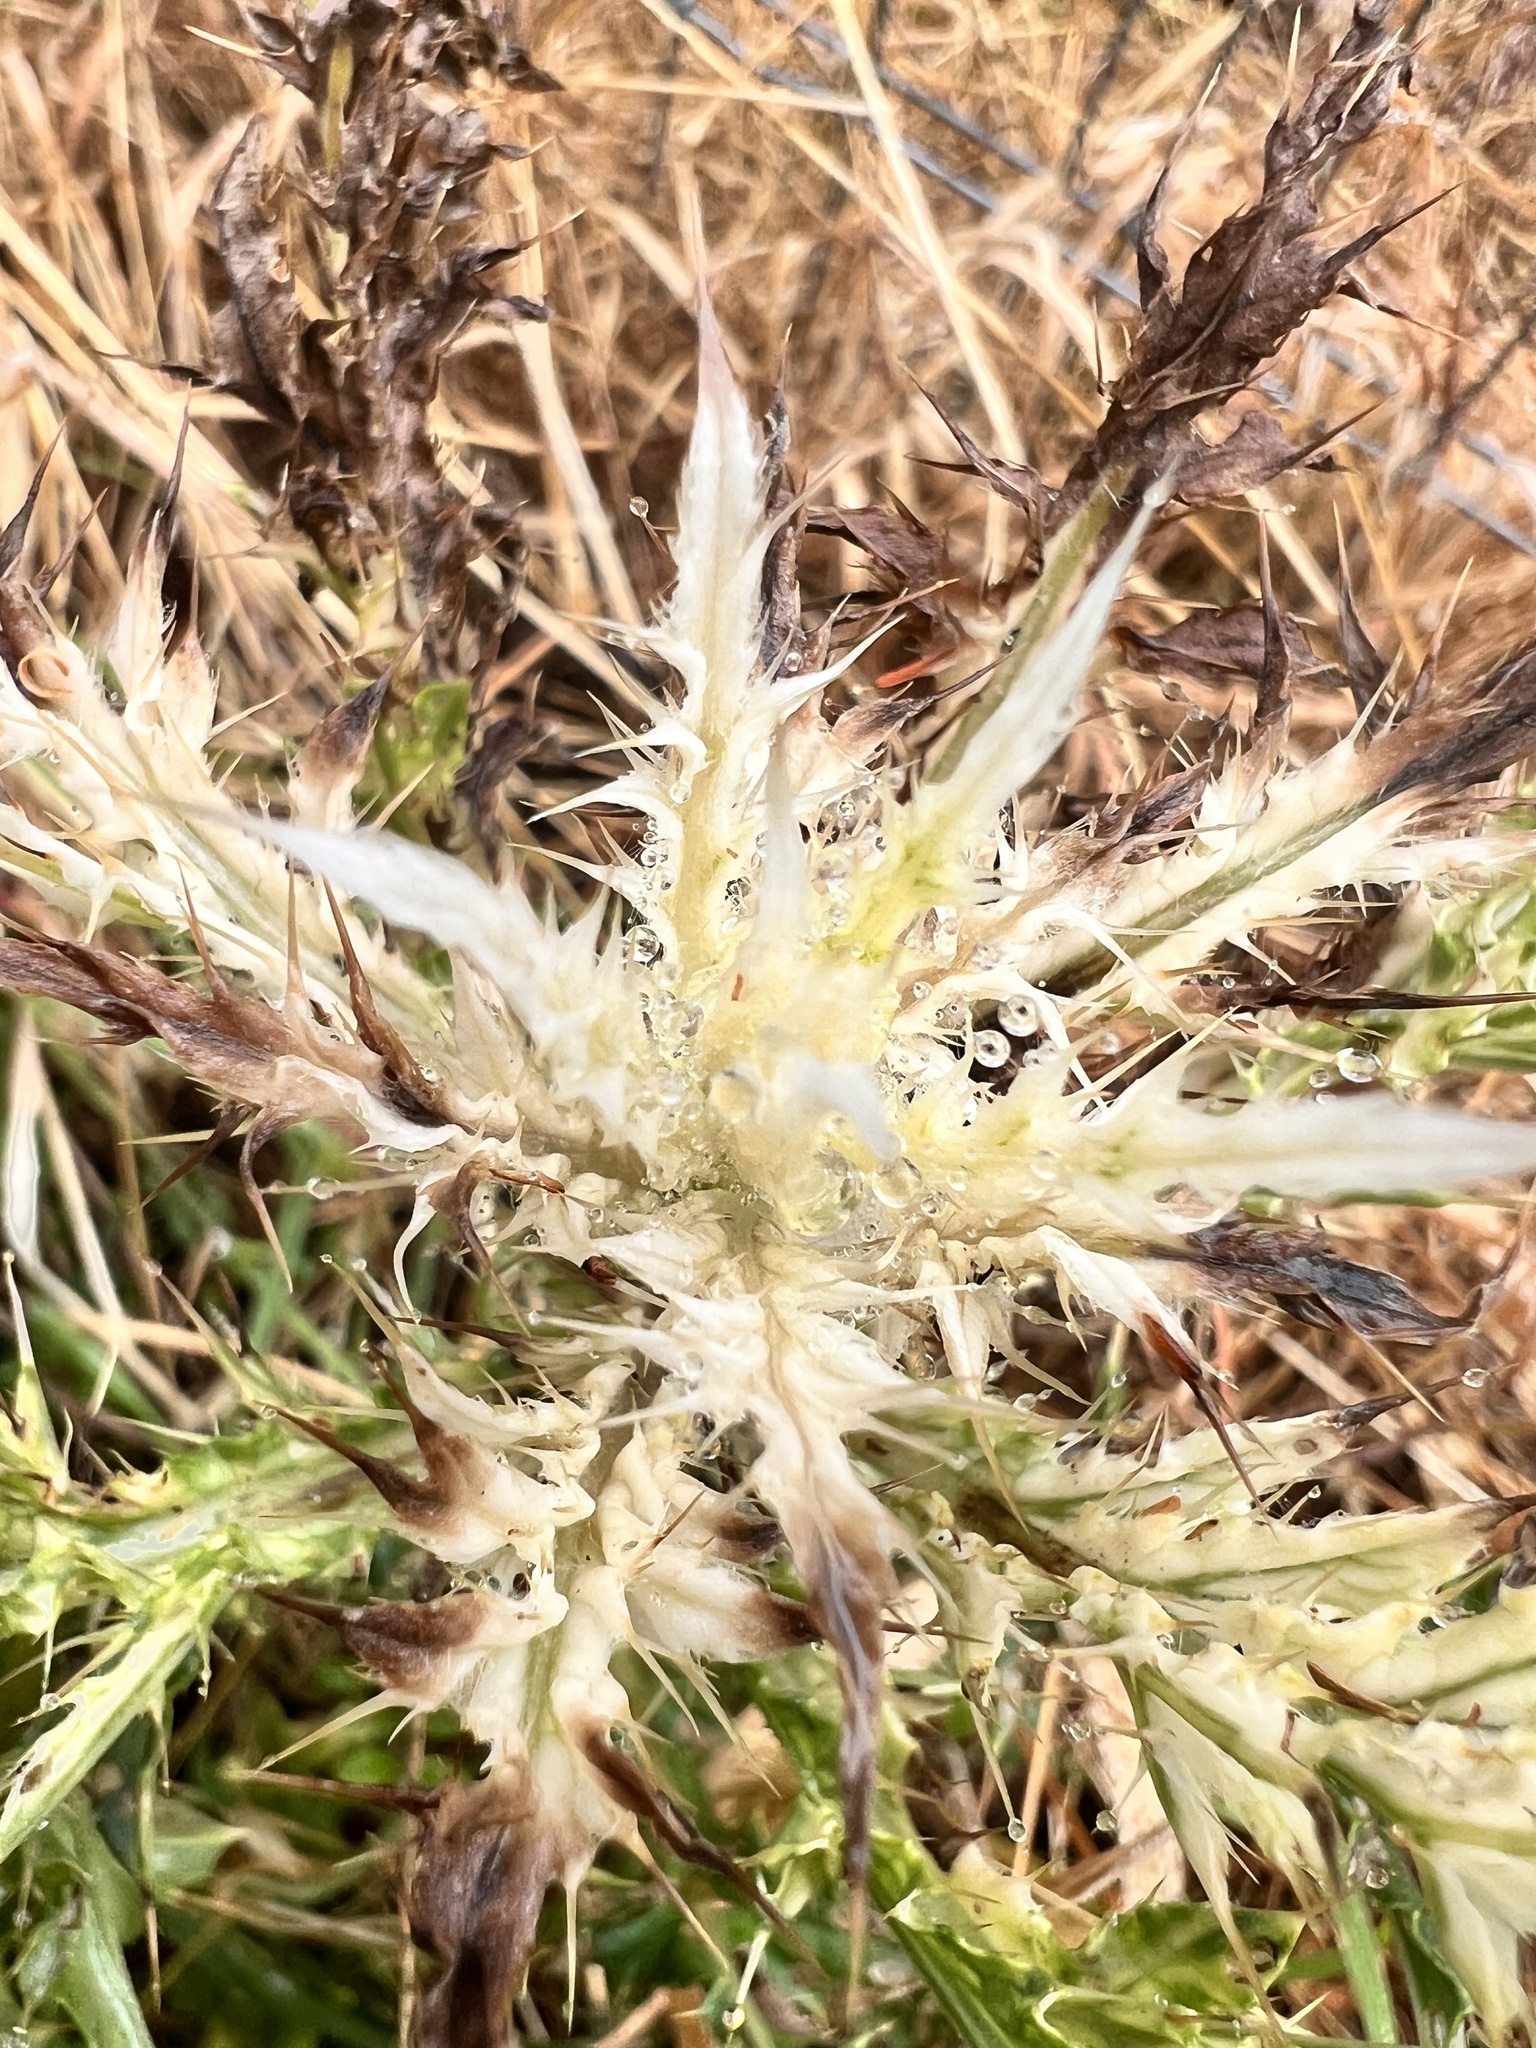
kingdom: Bacteria
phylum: Proteobacteria
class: Gammaproteobacteria
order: Pseudomonadales
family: Pseudomonadaceae
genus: Pseudomonas
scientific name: Pseudomonas syringae
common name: Bacterial speck
